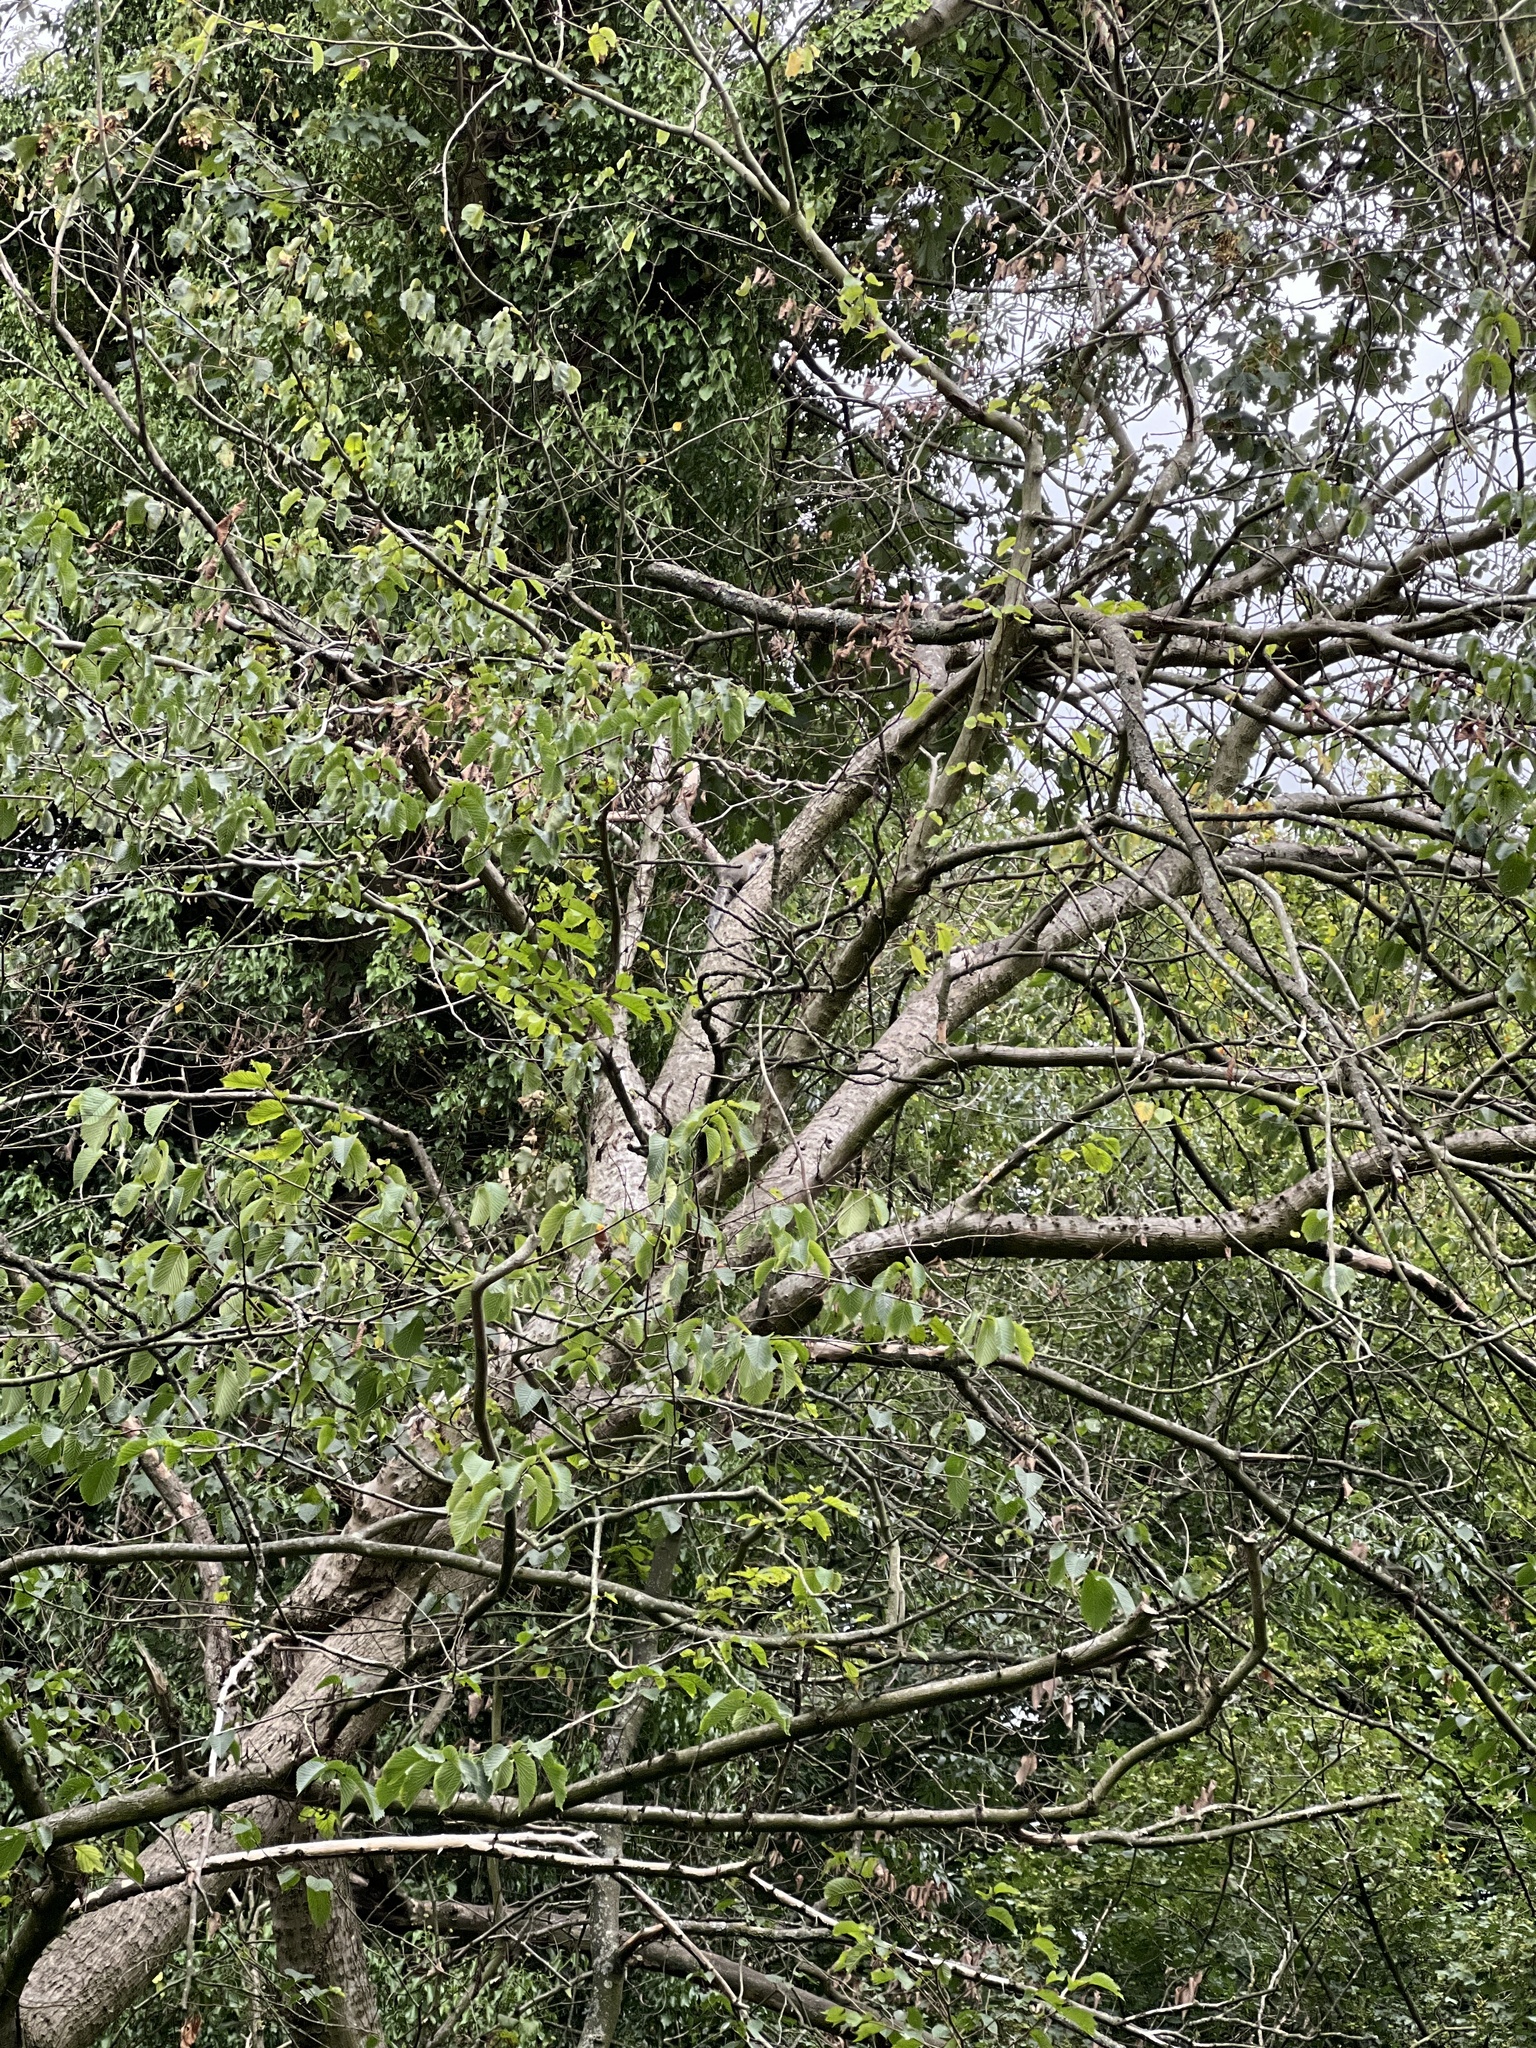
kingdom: Animalia
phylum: Chordata
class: Mammalia
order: Rodentia
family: Sciuridae
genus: Sciurus
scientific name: Sciurus carolinensis
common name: Eastern gray squirrel
